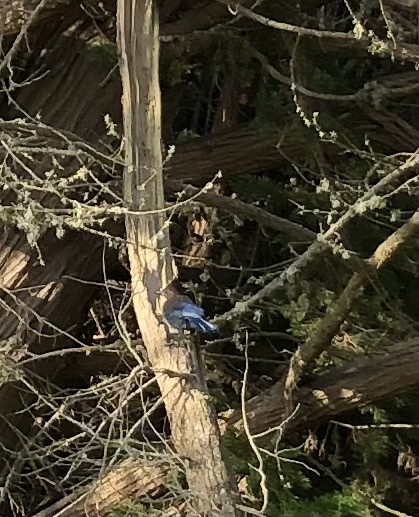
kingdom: Animalia
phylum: Chordata
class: Aves
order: Passeriformes
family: Corvidae
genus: Cyanocitta
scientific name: Cyanocitta stelleri
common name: Steller's jay
